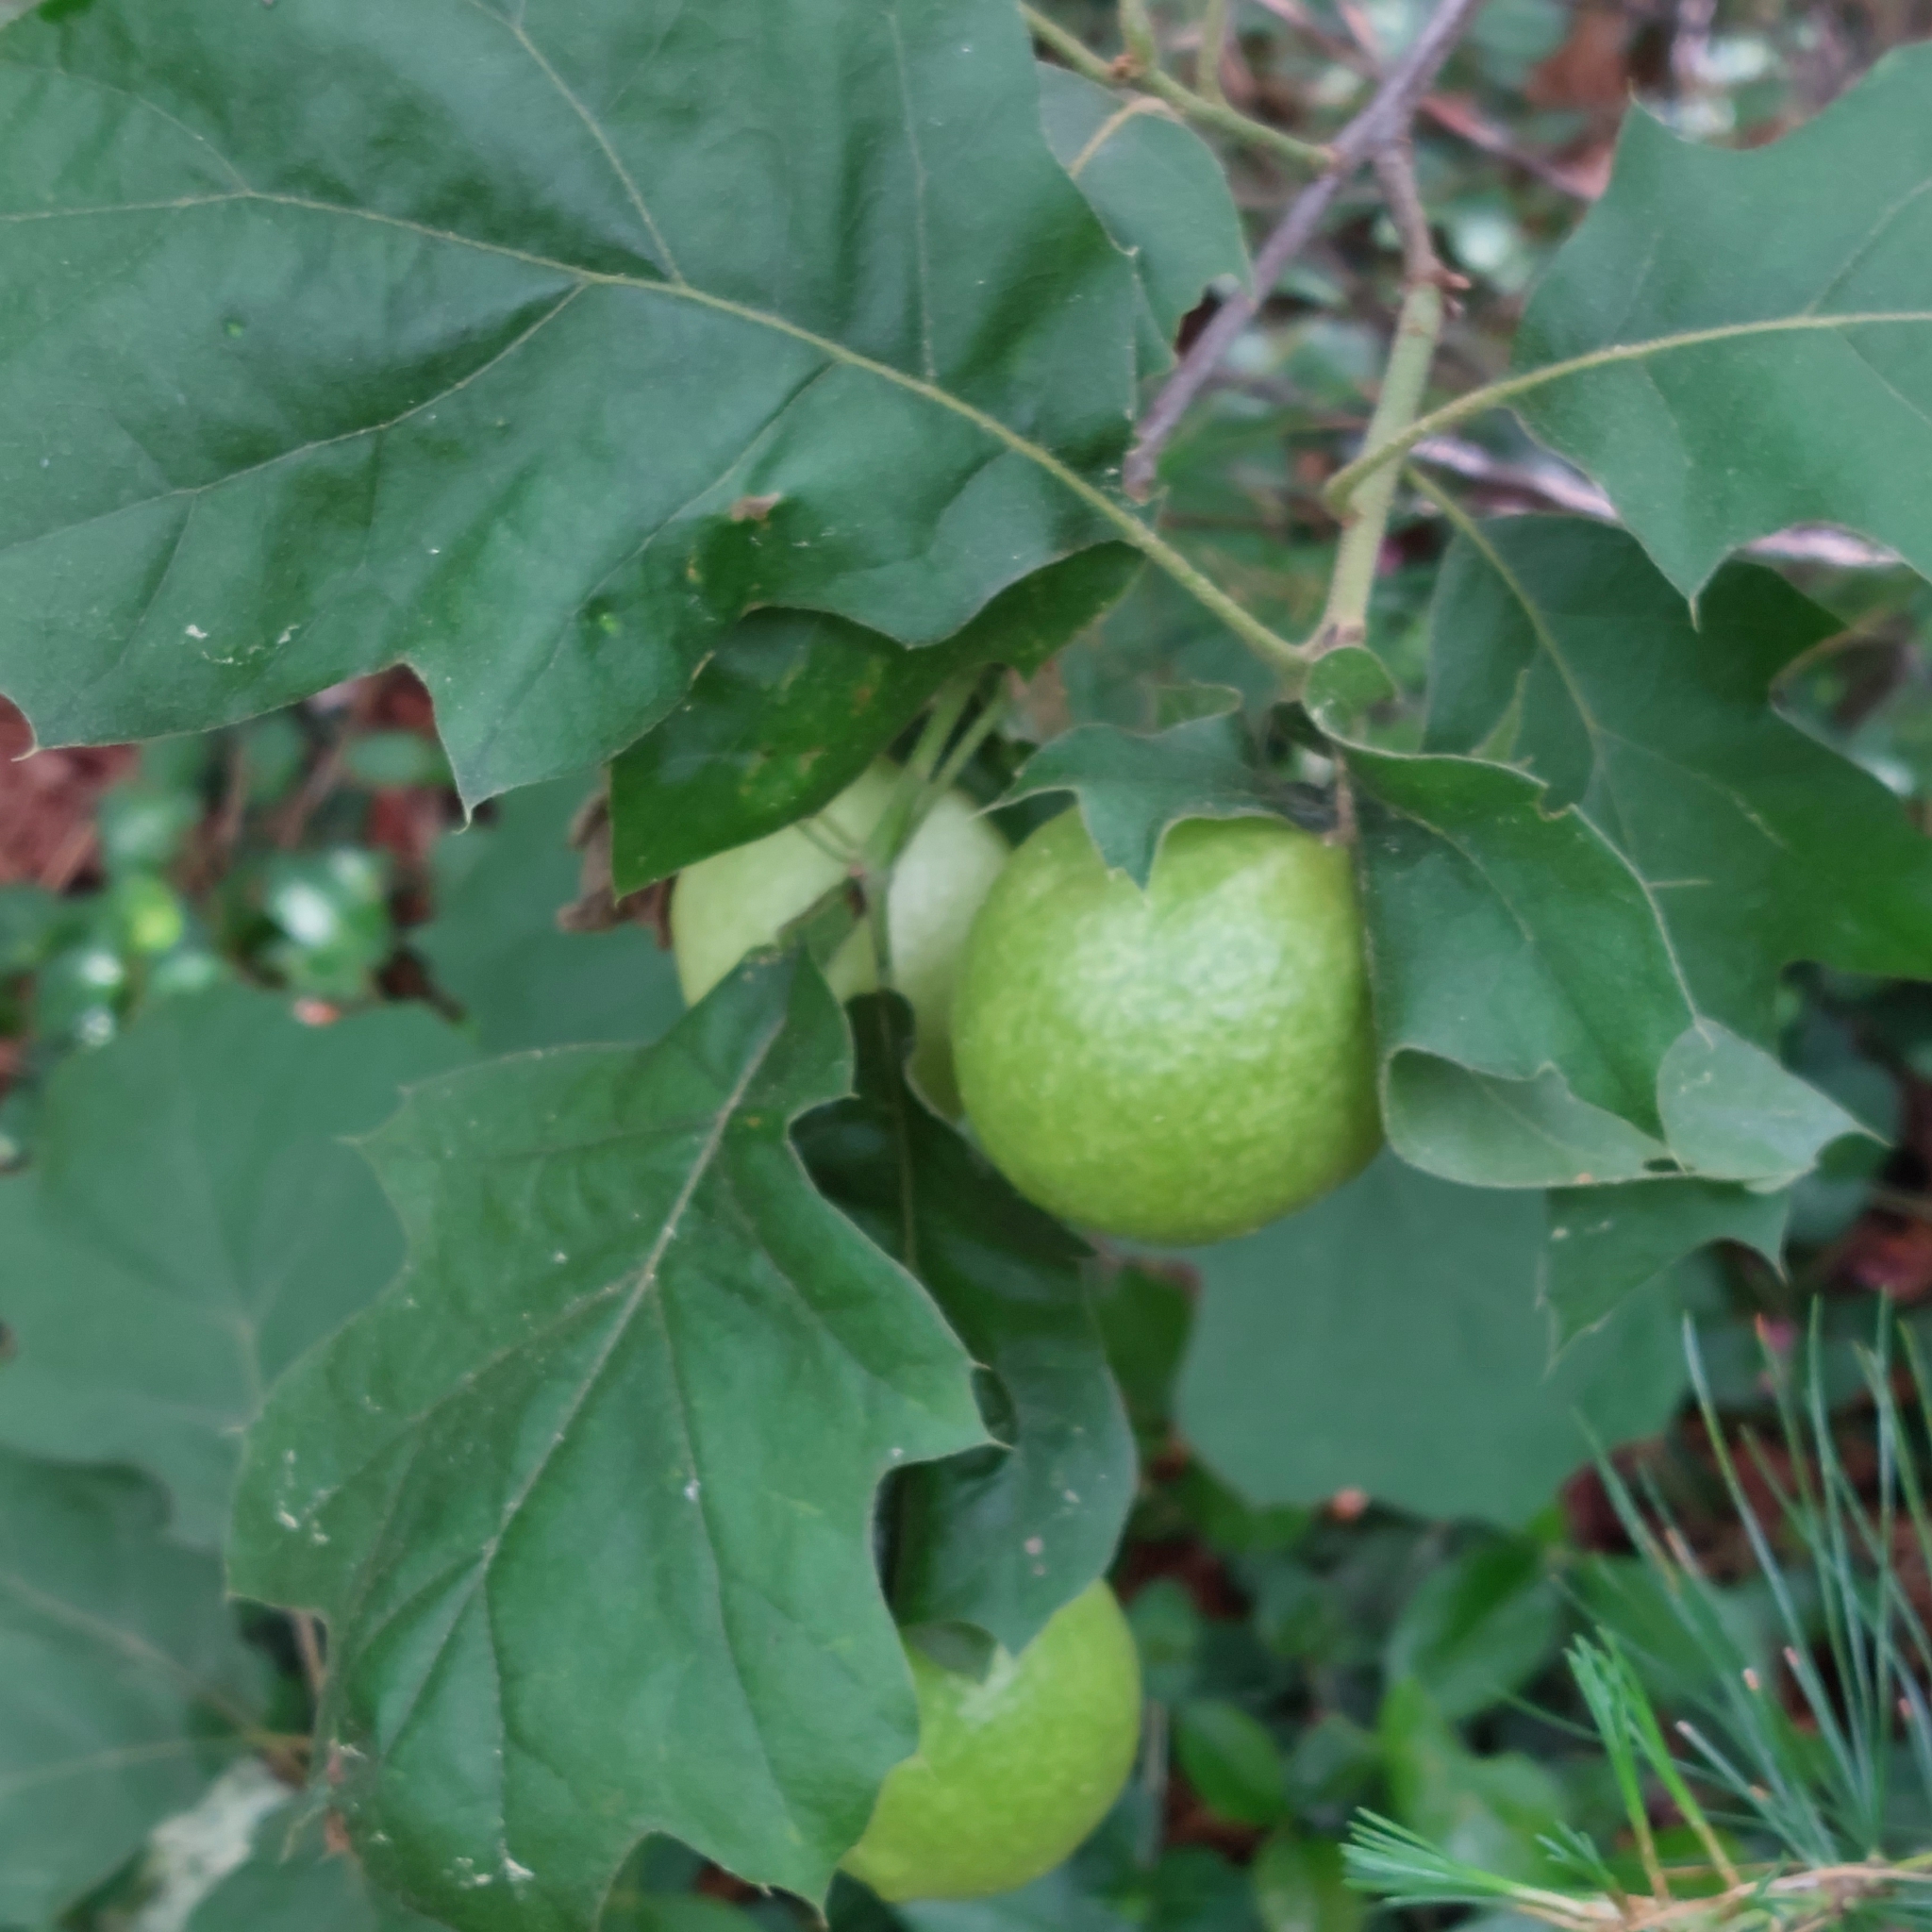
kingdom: Animalia
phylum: Arthropoda
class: Insecta
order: Hymenoptera
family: Cynipidae
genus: Amphibolips
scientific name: Amphibolips
